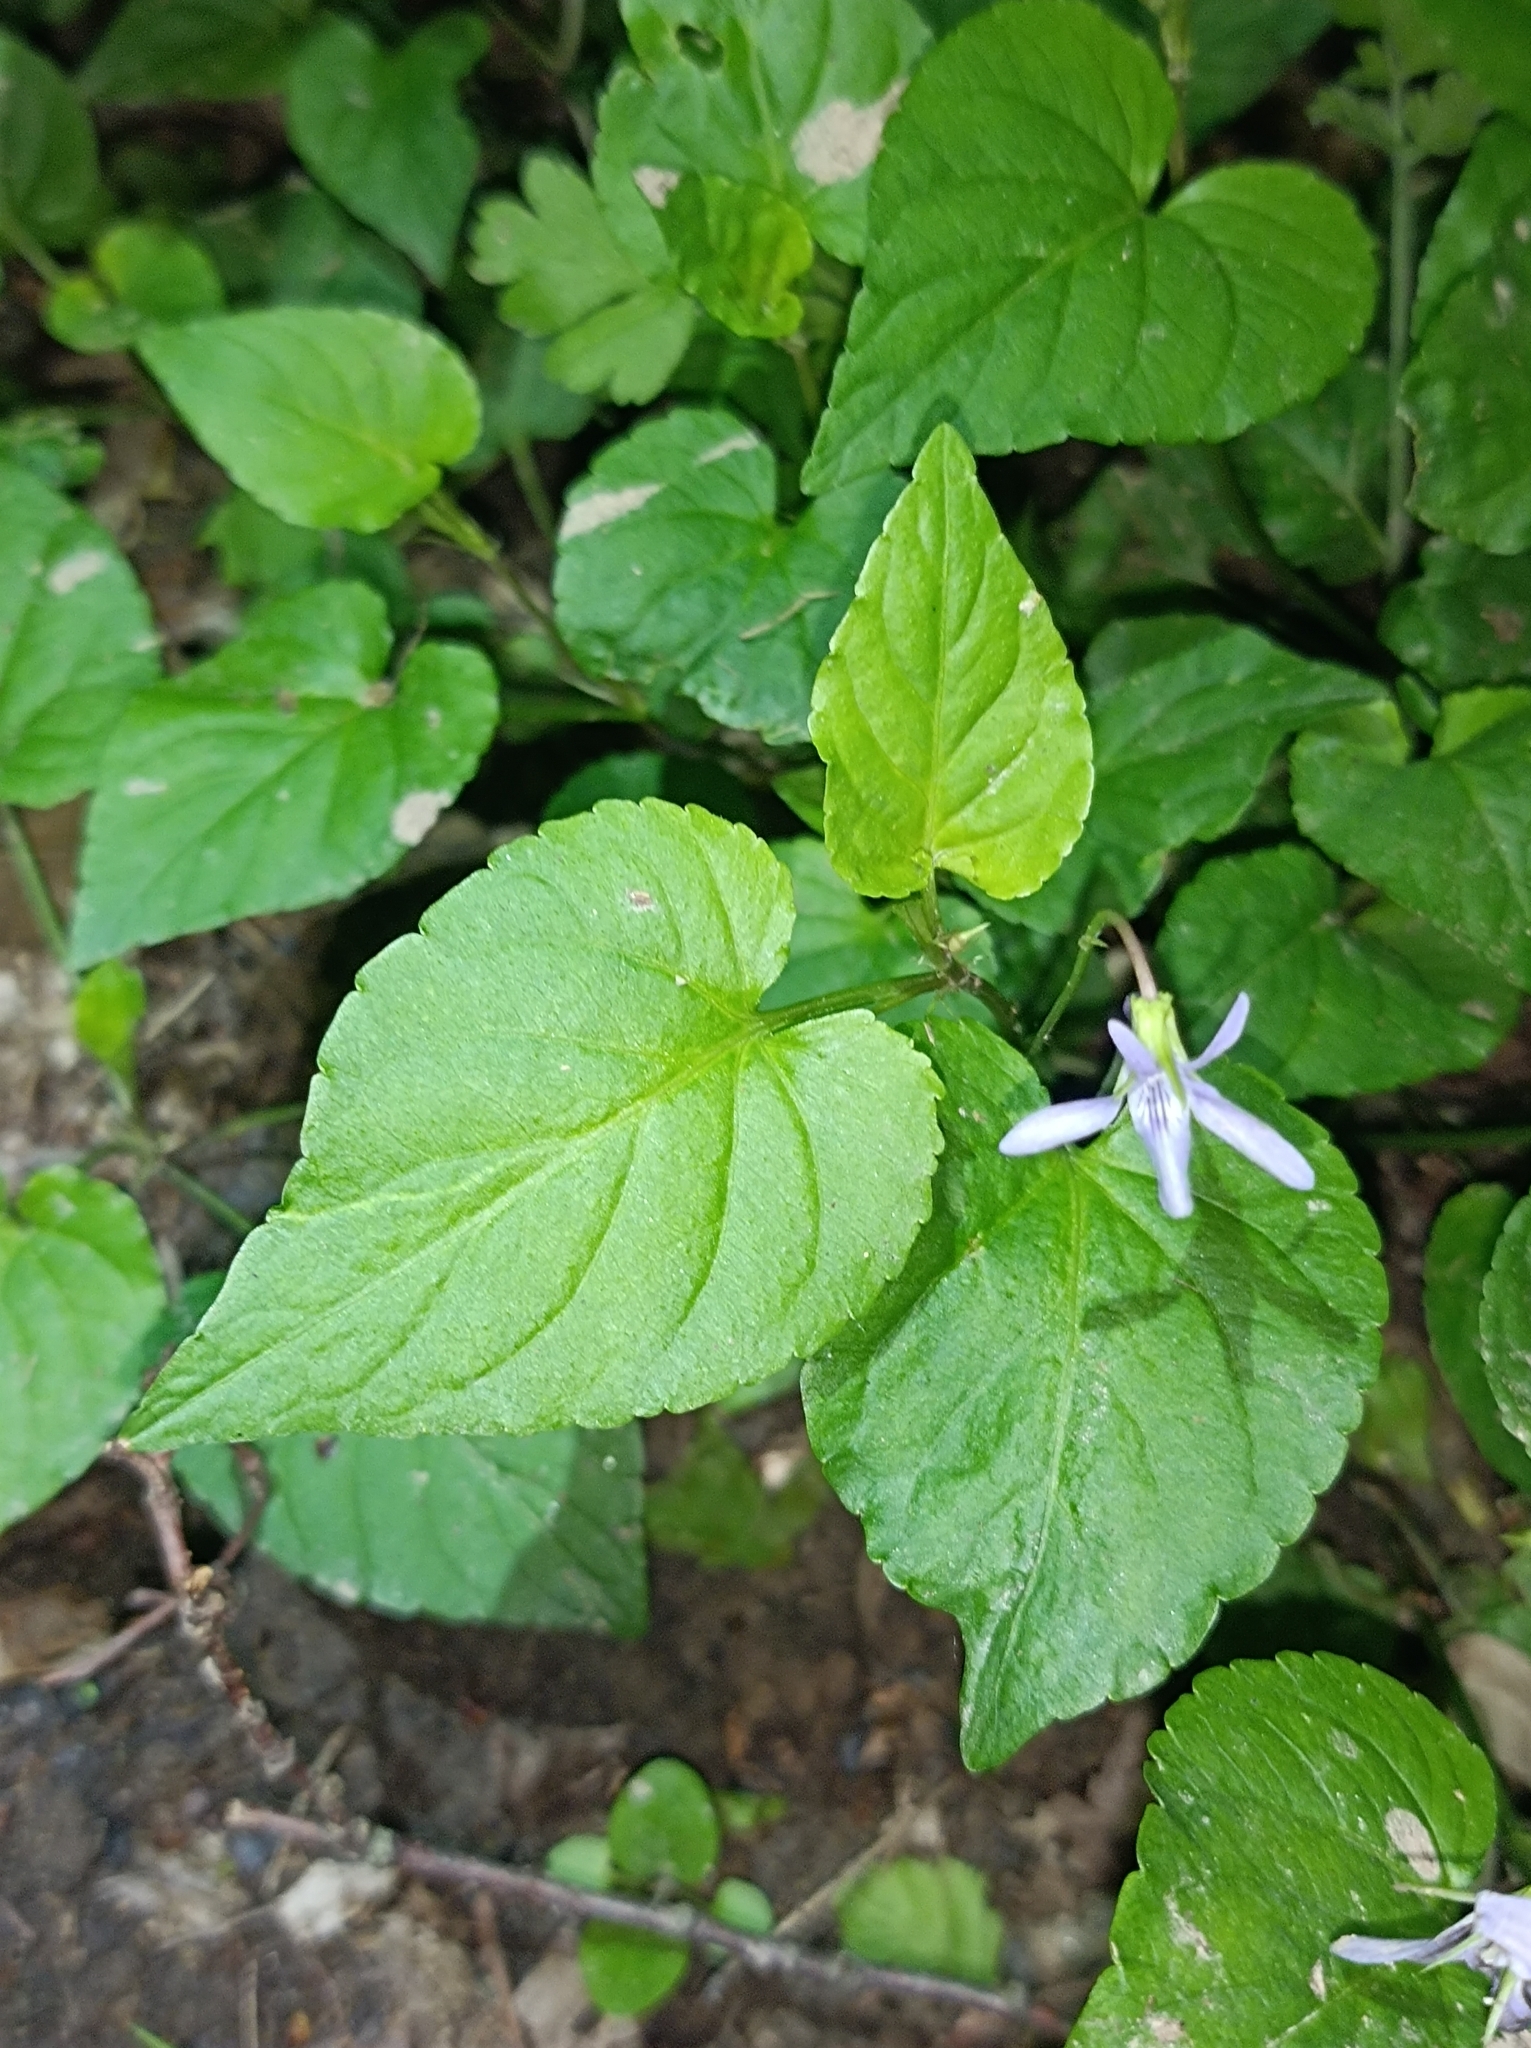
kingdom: Plantae
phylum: Tracheophyta
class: Magnoliopsida
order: Malpighiales
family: Violaceae
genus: Viola
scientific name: Viola reichenbachiana
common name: Early dog-violet
